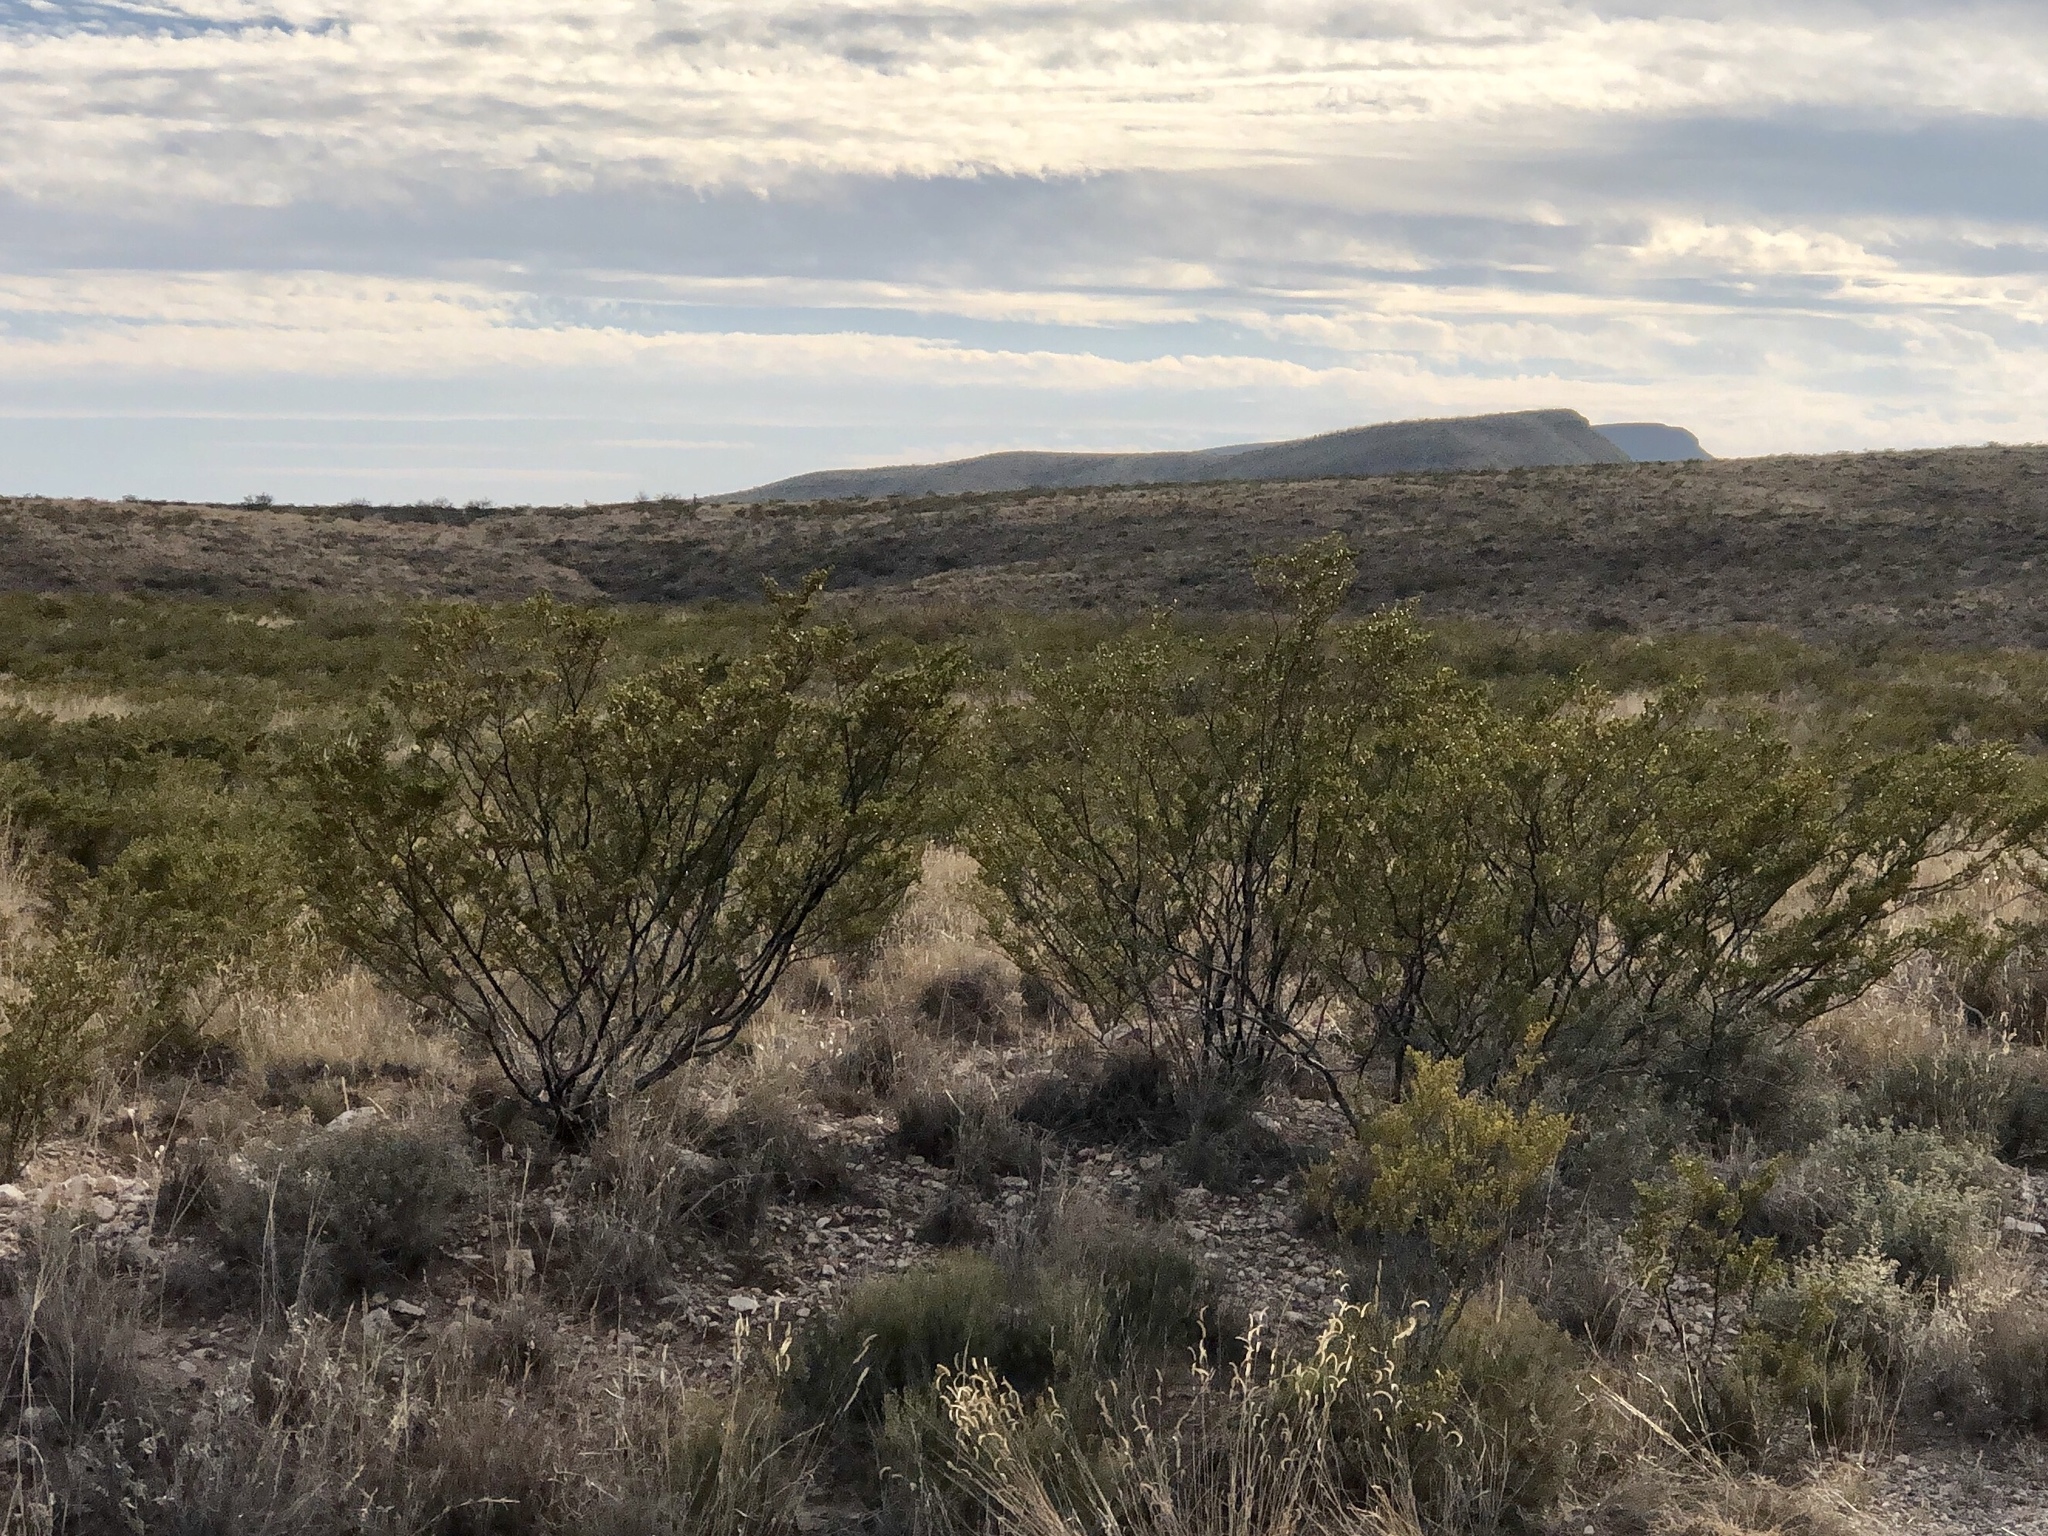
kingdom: Plantae
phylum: Tracheophyta
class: Magnoliopsida
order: Zygophyllales
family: Zygophyllaceae
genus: Larrea
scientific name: Larrea tridentata
